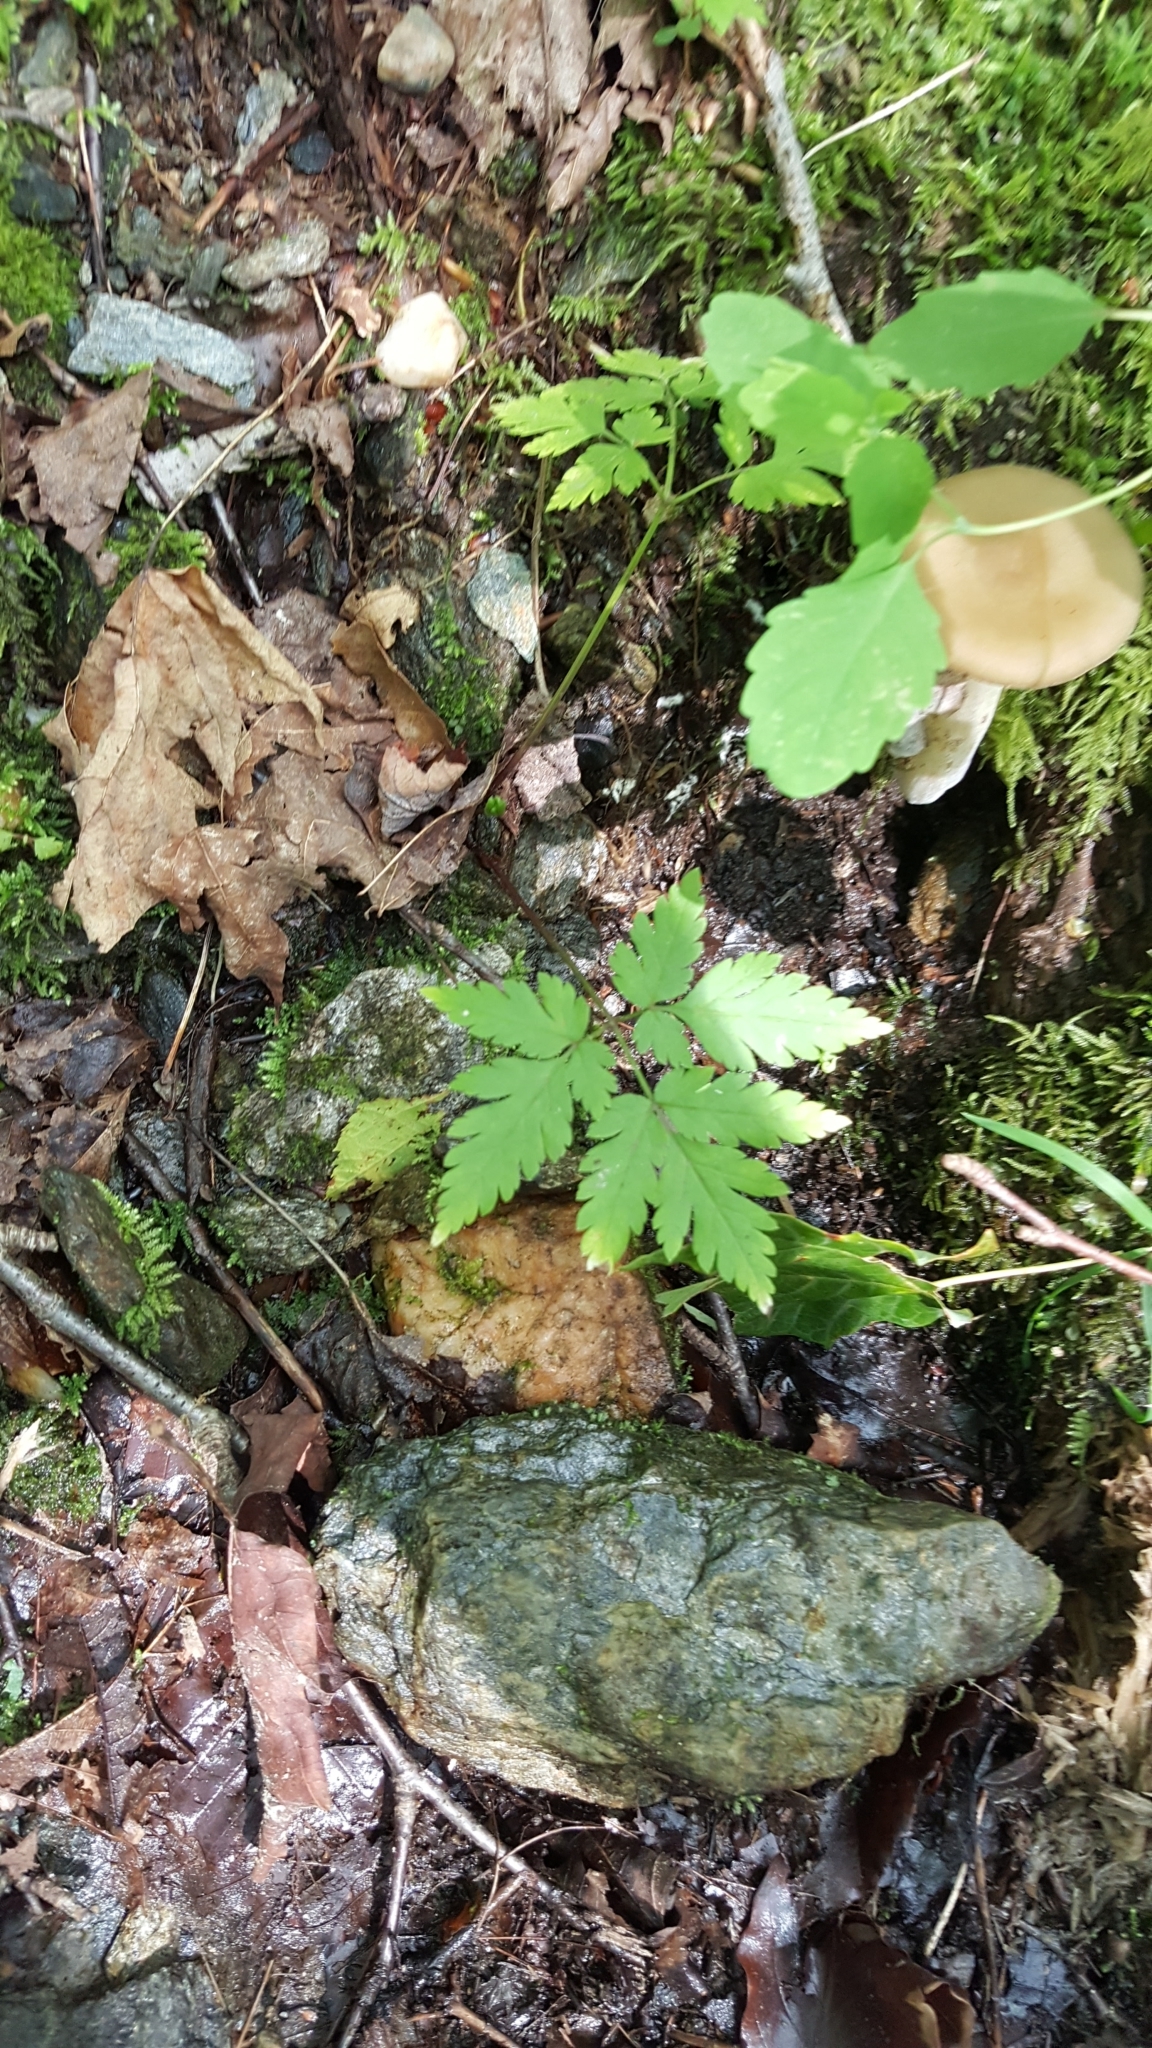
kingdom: Plantae
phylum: Tracheophyta
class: Magnoliopsida
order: Geraniales
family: Geraniaceae
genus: Geranium
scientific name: Geranium robertianum
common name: Herb-robert
